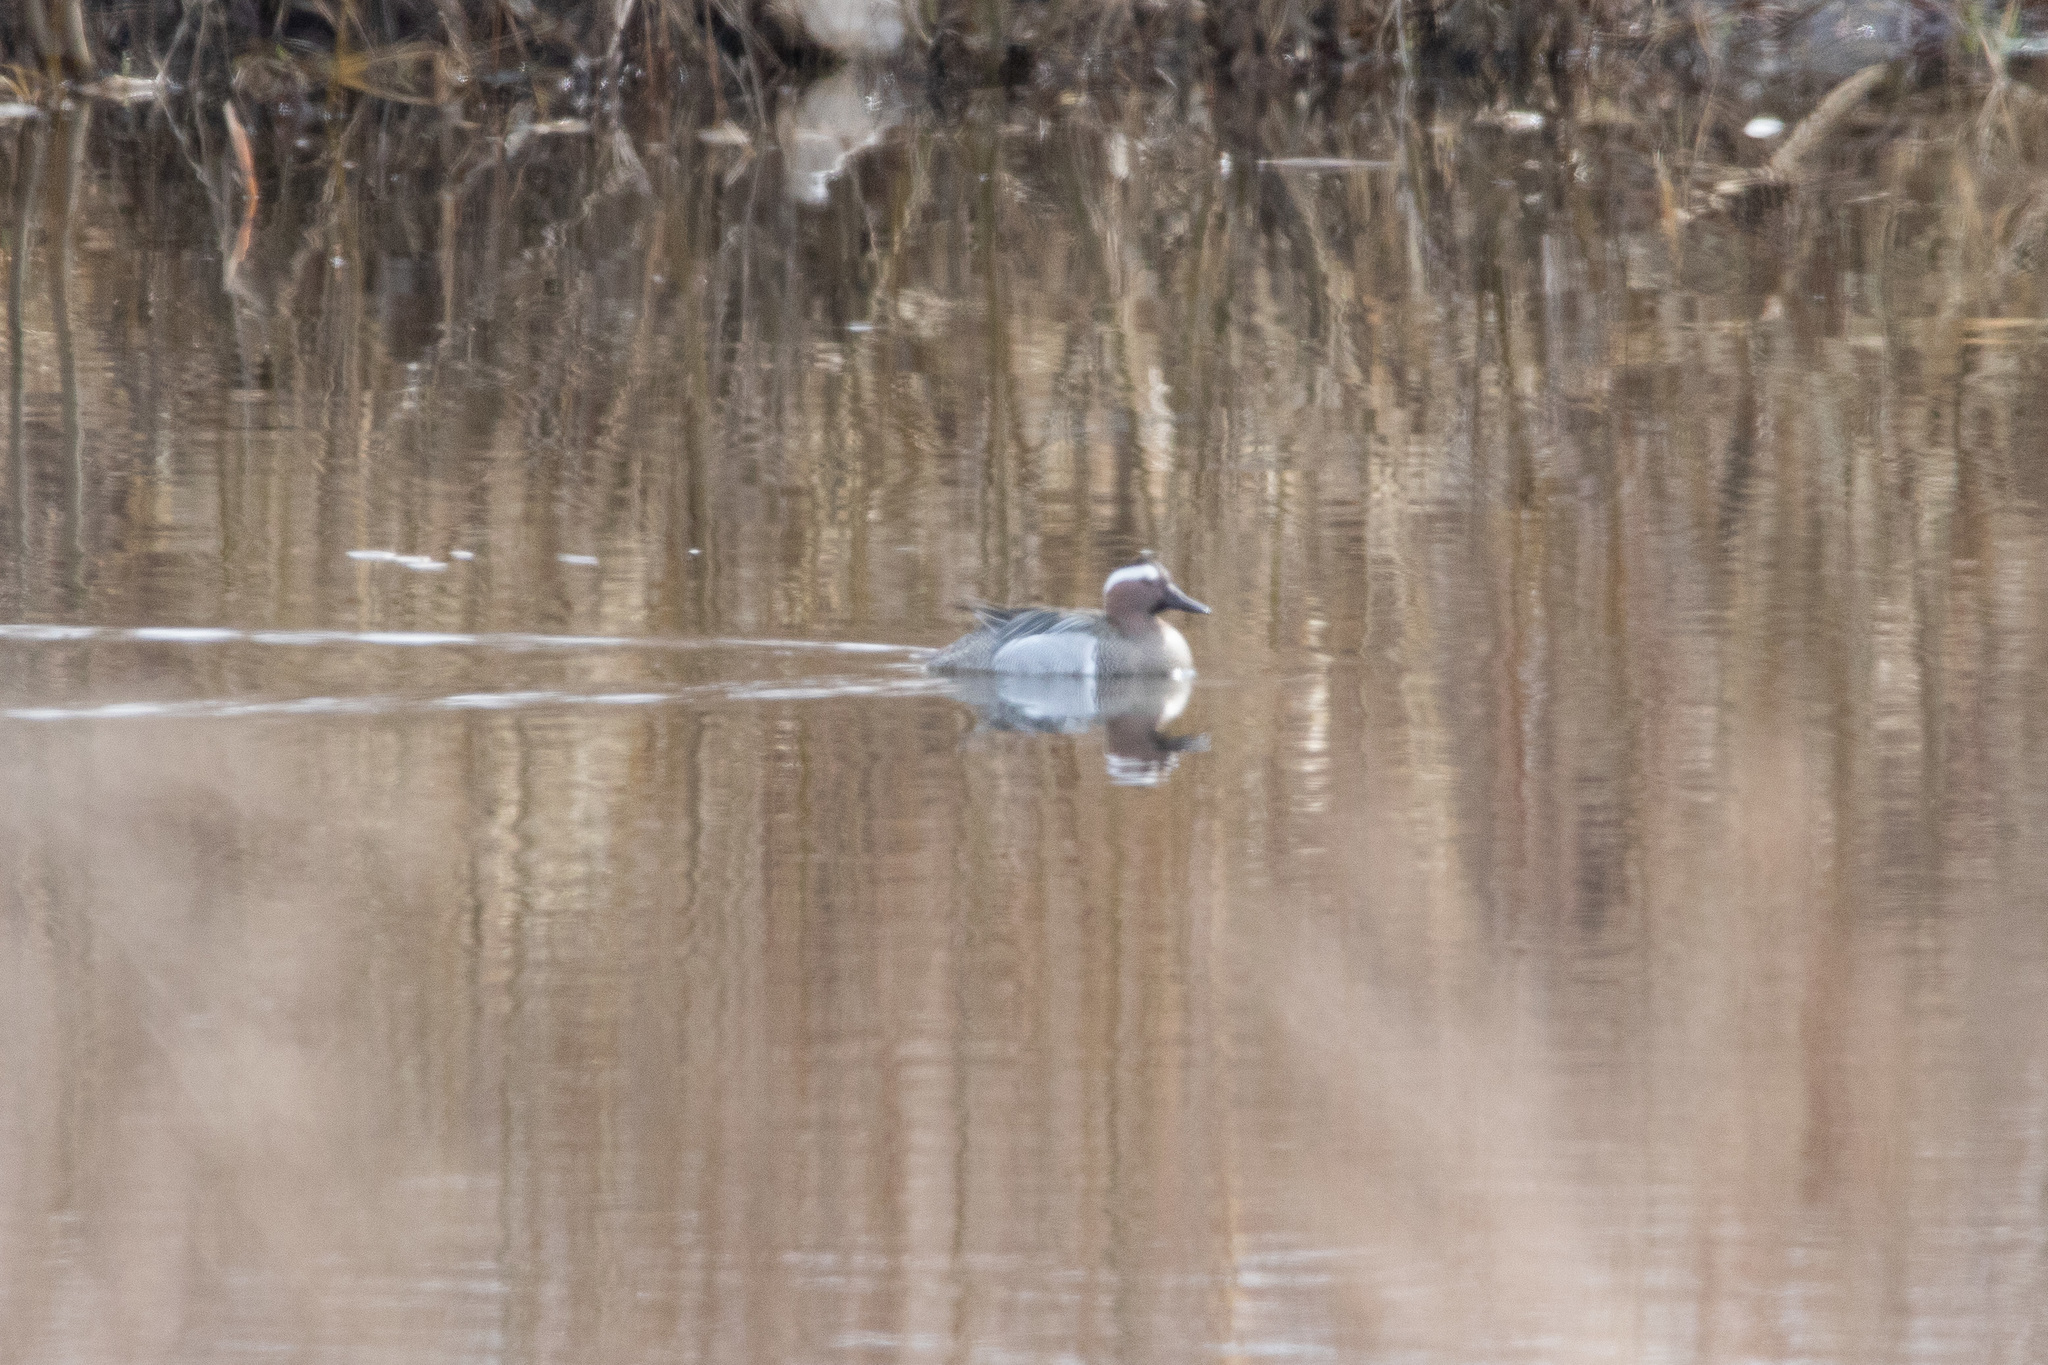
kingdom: Animalia
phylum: Chordata
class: Aves
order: Anseriformes
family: Anatidae
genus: Spatula
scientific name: Spatula querquedula
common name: Garganey
